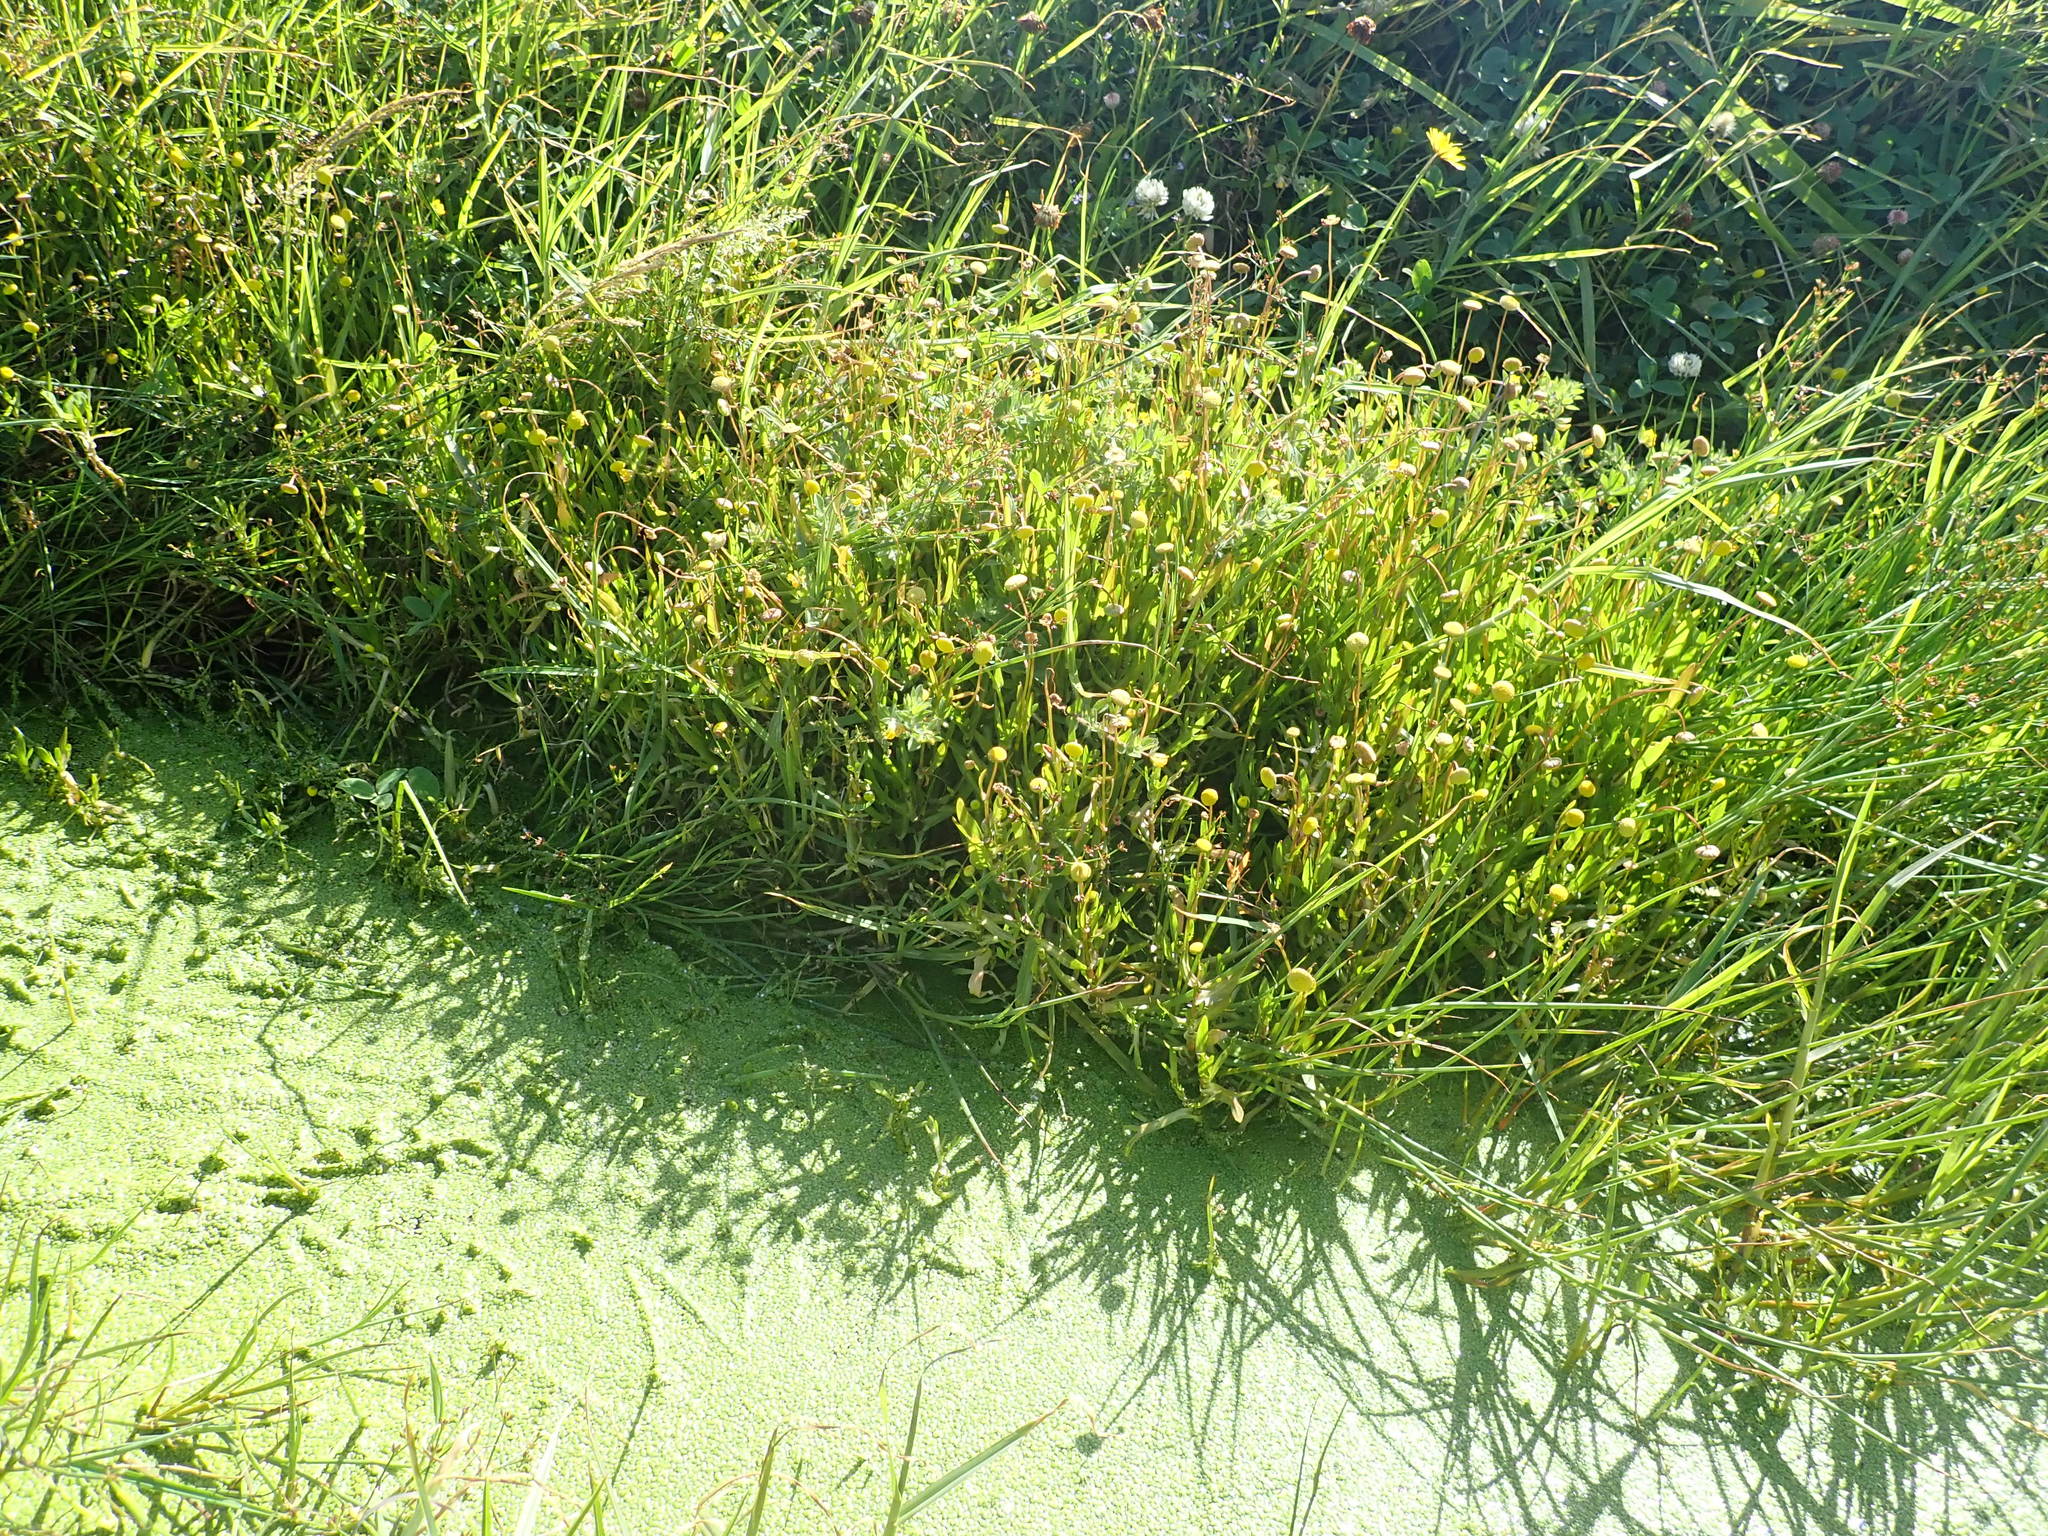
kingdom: Plantae
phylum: Tracheophyta
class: Magnoliopsida
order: Asterales
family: Asteraceae
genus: Cotula
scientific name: Cotula coronopifolia
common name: Buttonweed
